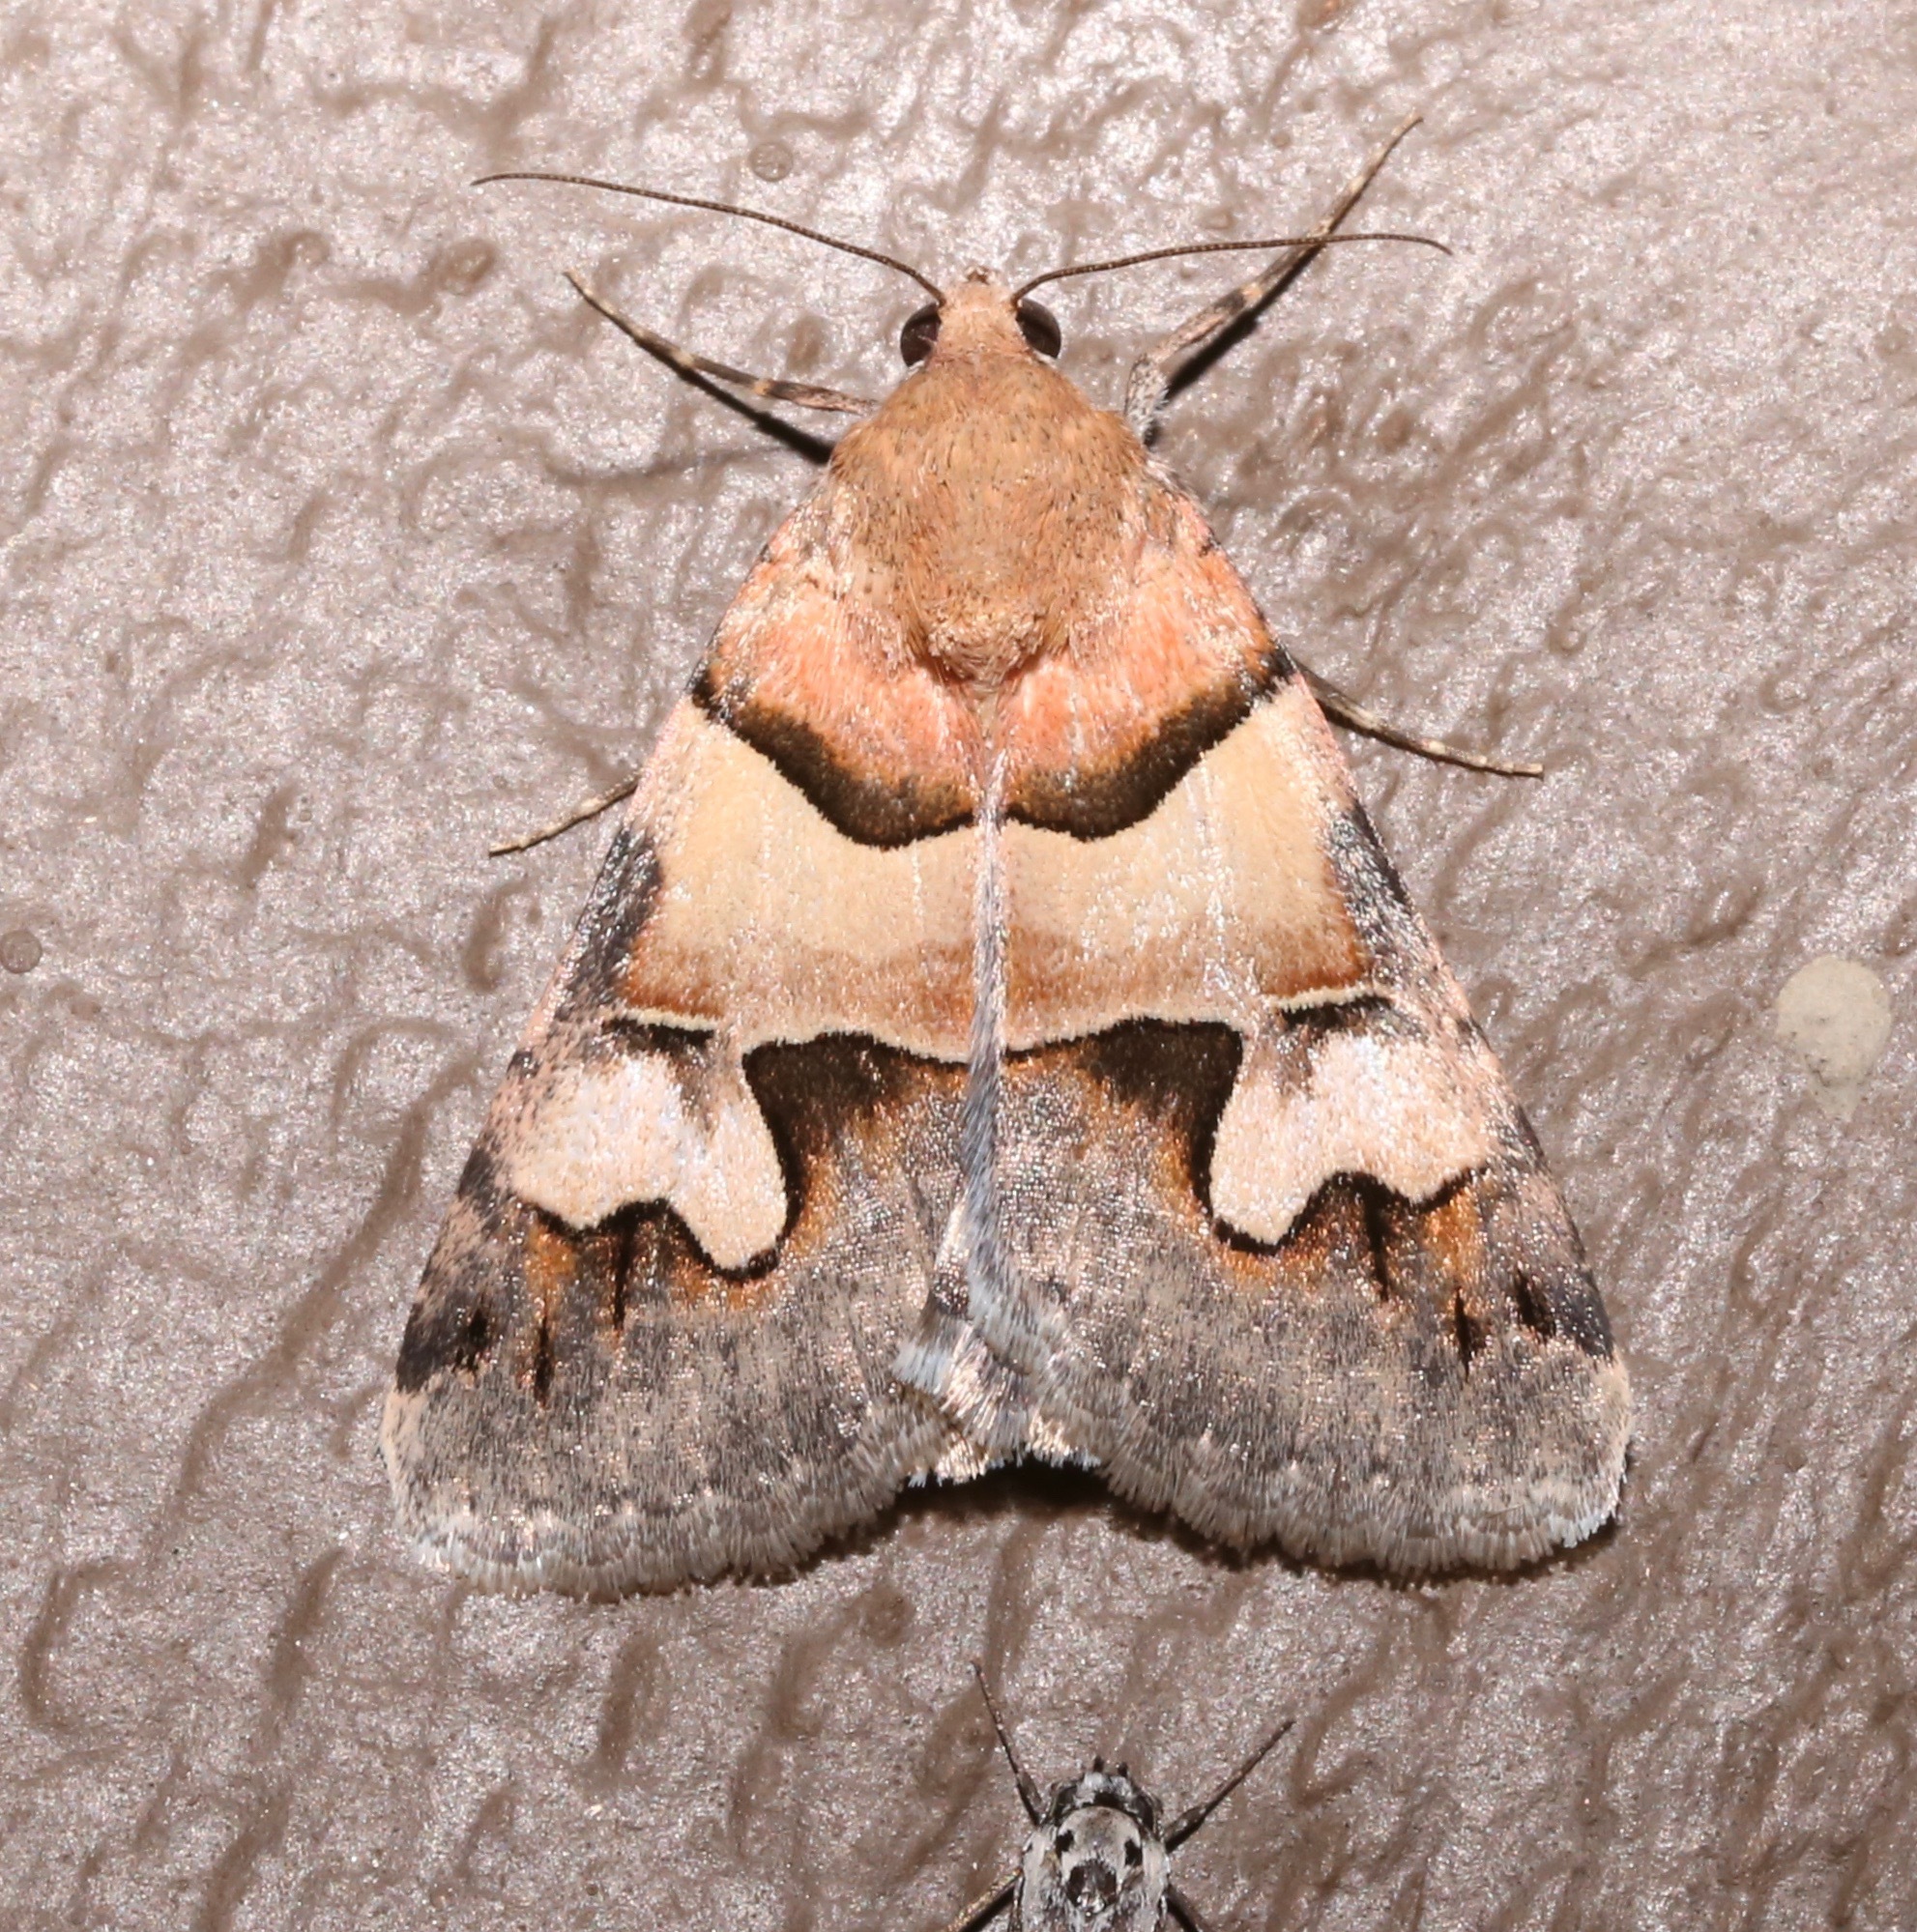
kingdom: Animalia
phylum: Arthropoda
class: Insecta
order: Lepidoptera
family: Erebidae
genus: Drasteria
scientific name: Drasteria pallescens
